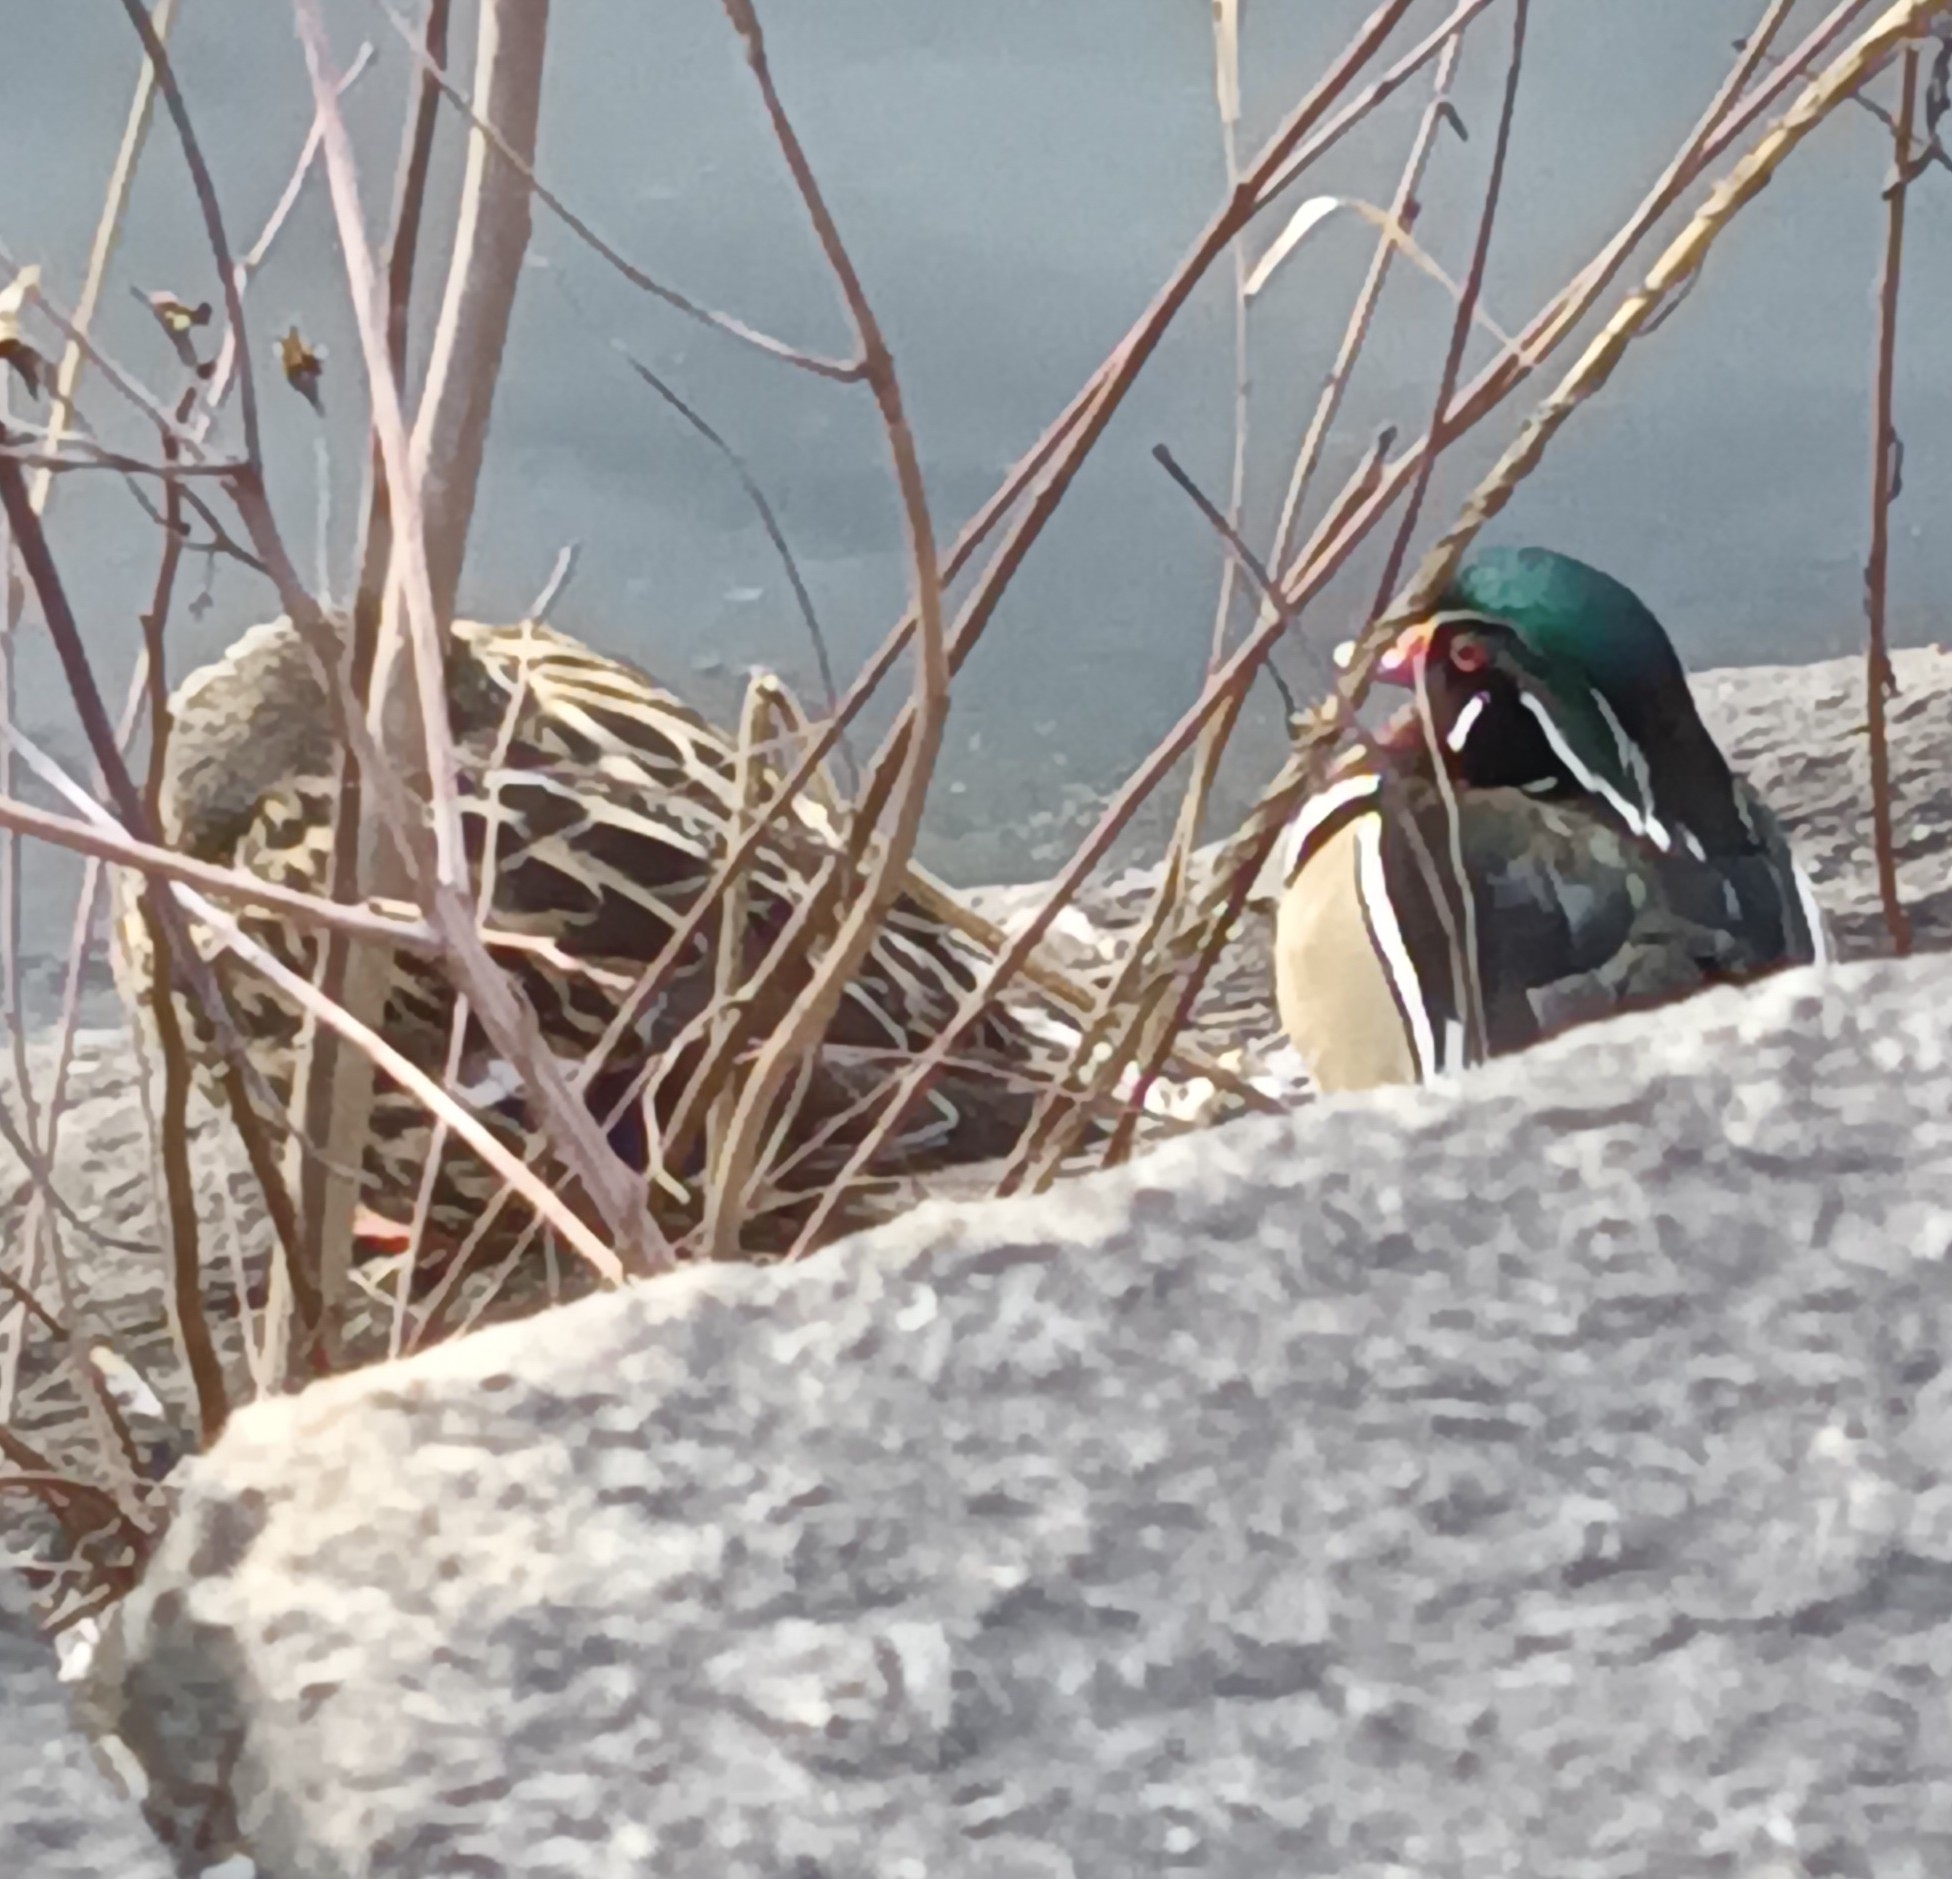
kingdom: Animalia
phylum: Chordata
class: Aves
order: Anseriformes
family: Anatidae
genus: Aix
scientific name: Aix sponsa
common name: Wood duck
